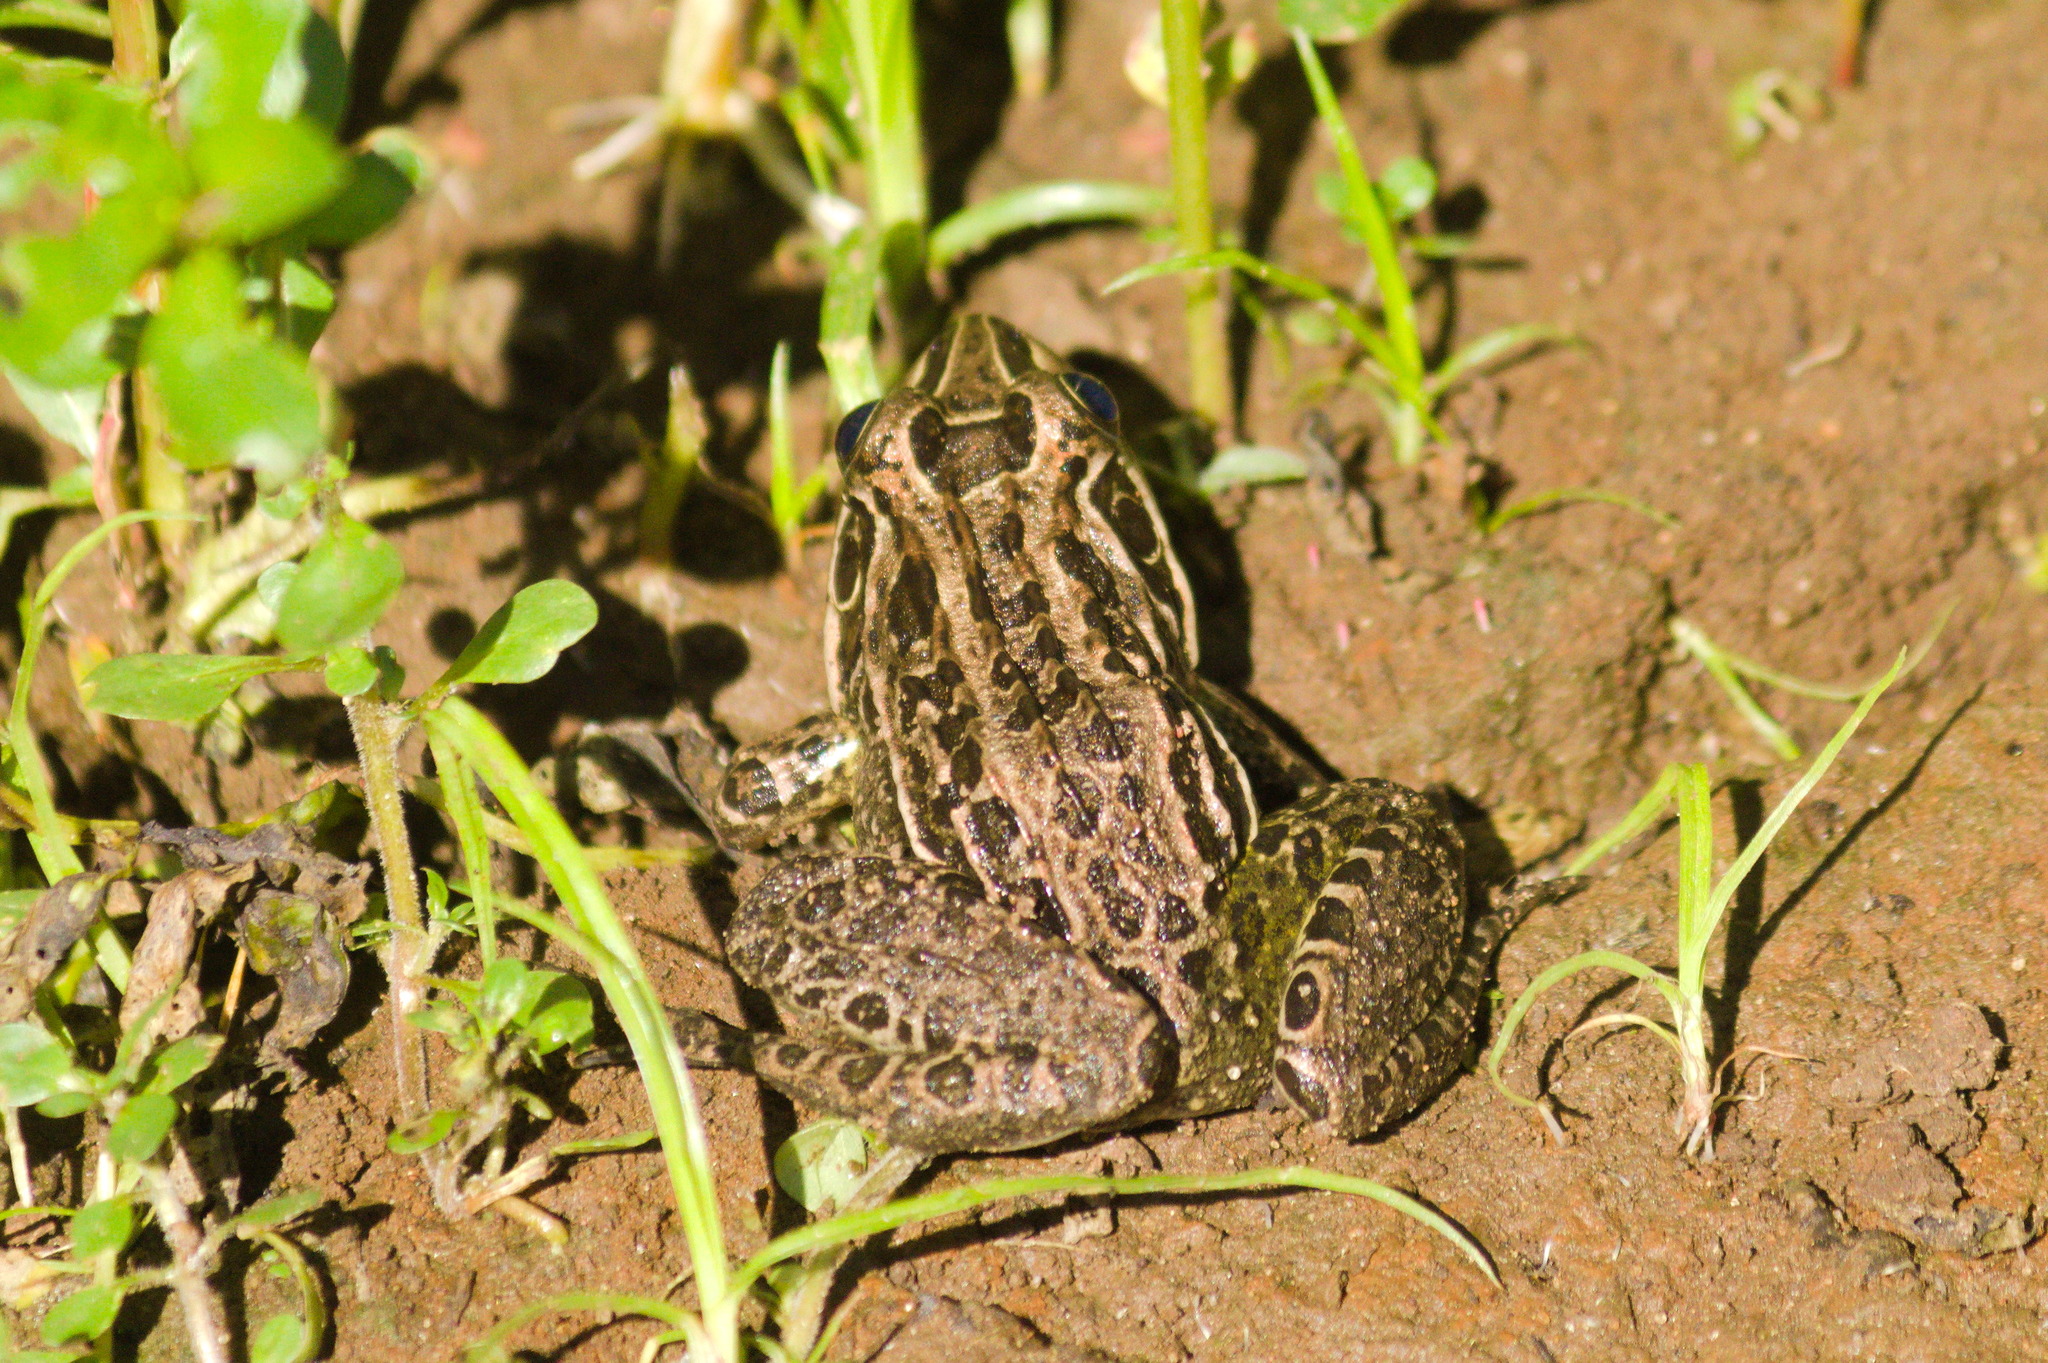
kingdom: Animalia
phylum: Chordata
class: Amphibia
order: Anura
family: Leptodactylidae
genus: Leptodactylus
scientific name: Leptodactylus luctator
